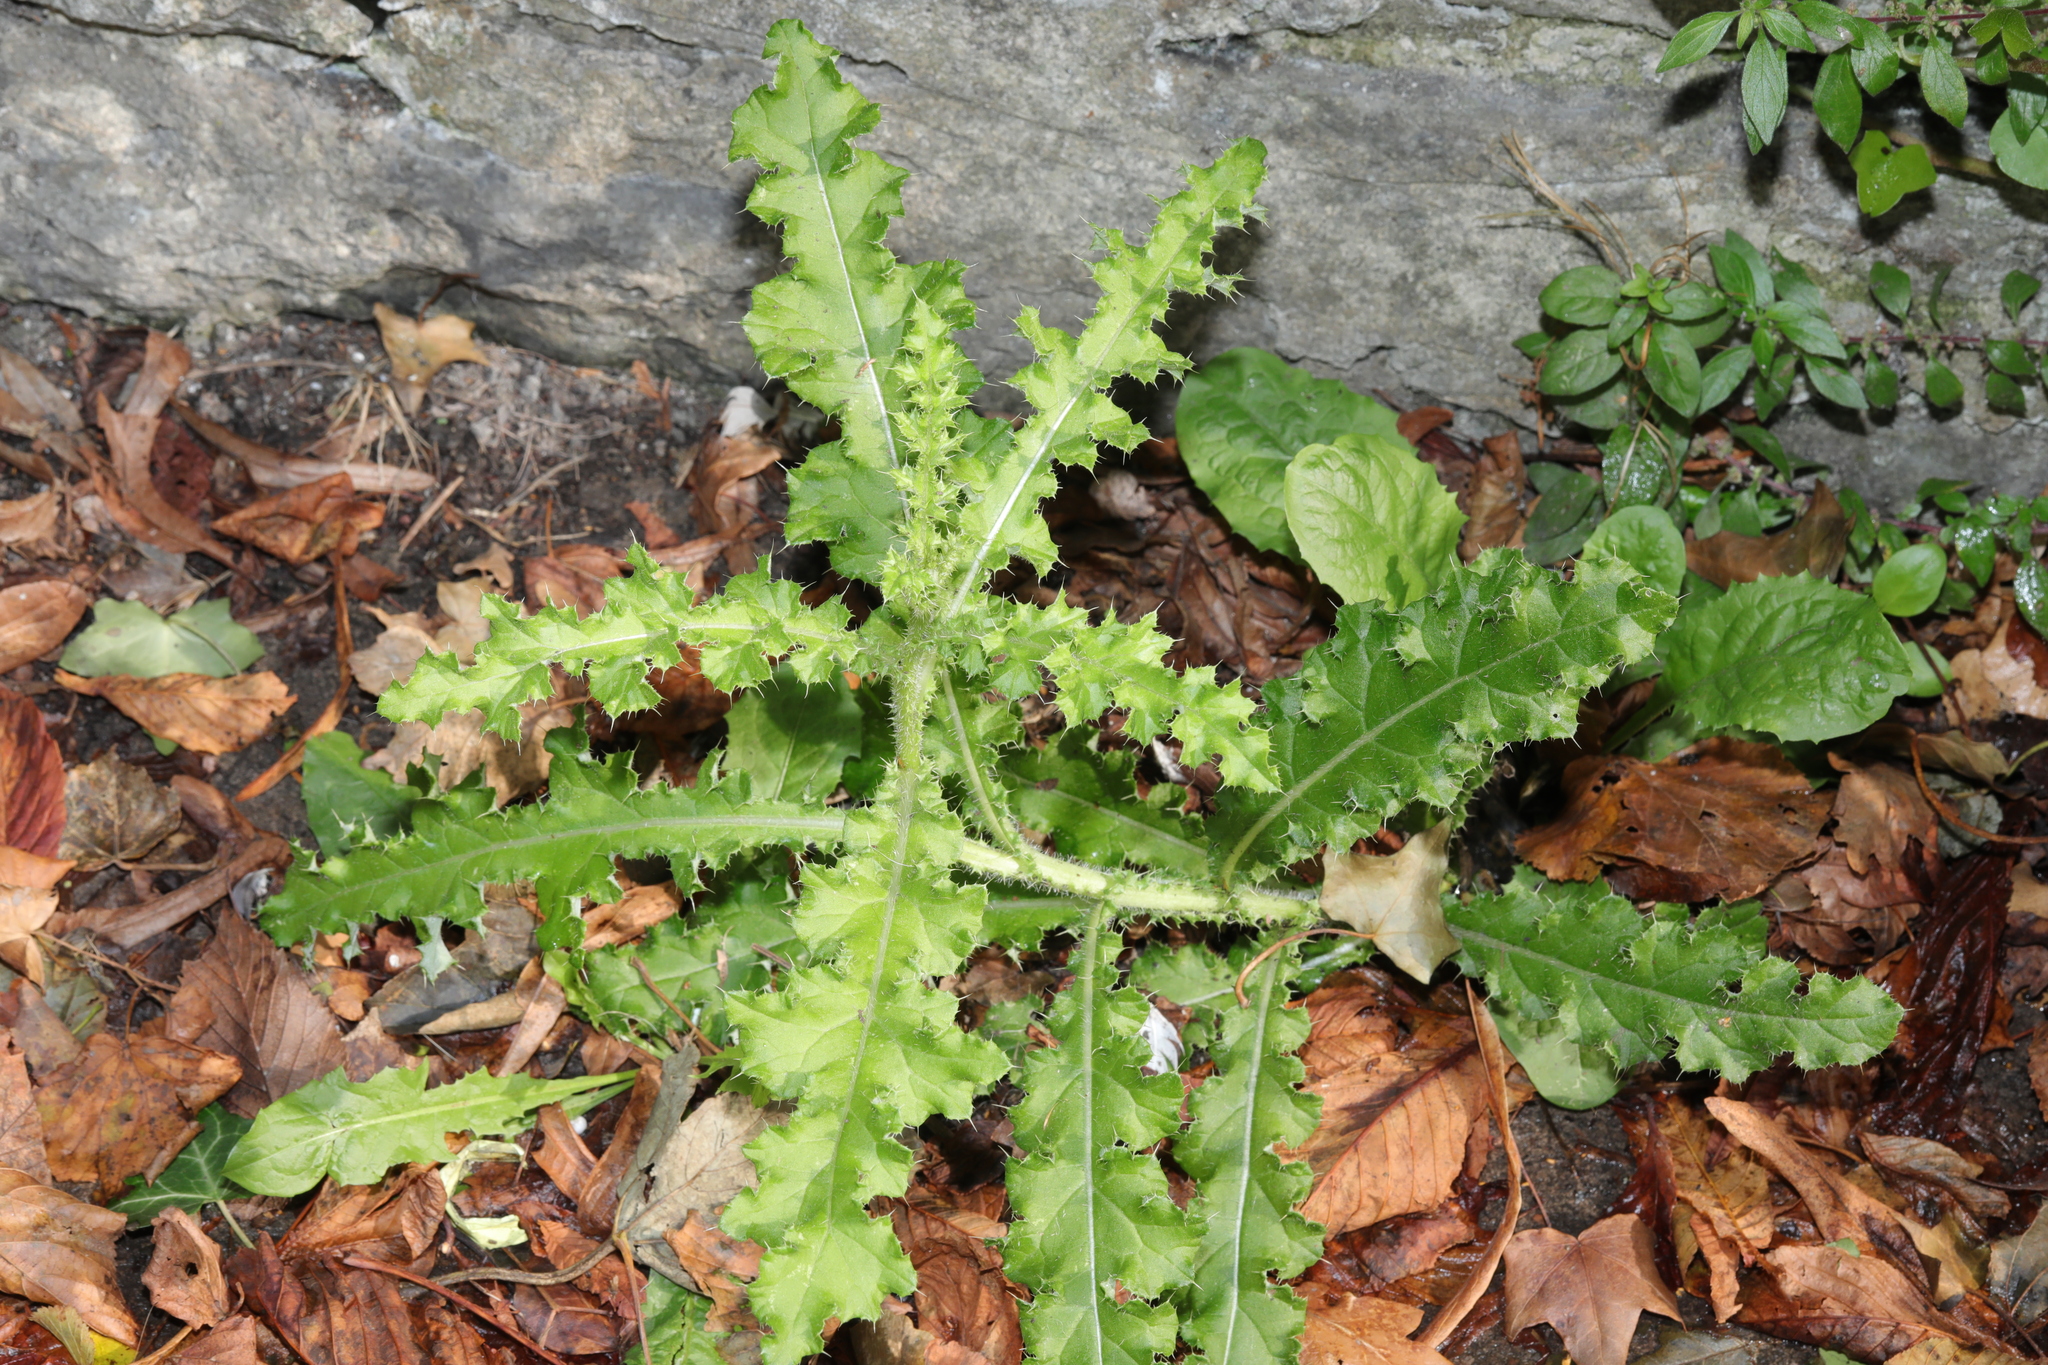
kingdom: Plantae
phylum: Tracheophyta
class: Magnoliopsida
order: Asterales
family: Asteraceae
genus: Cirsium
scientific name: Cirsium arvense
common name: Creeping thistle
